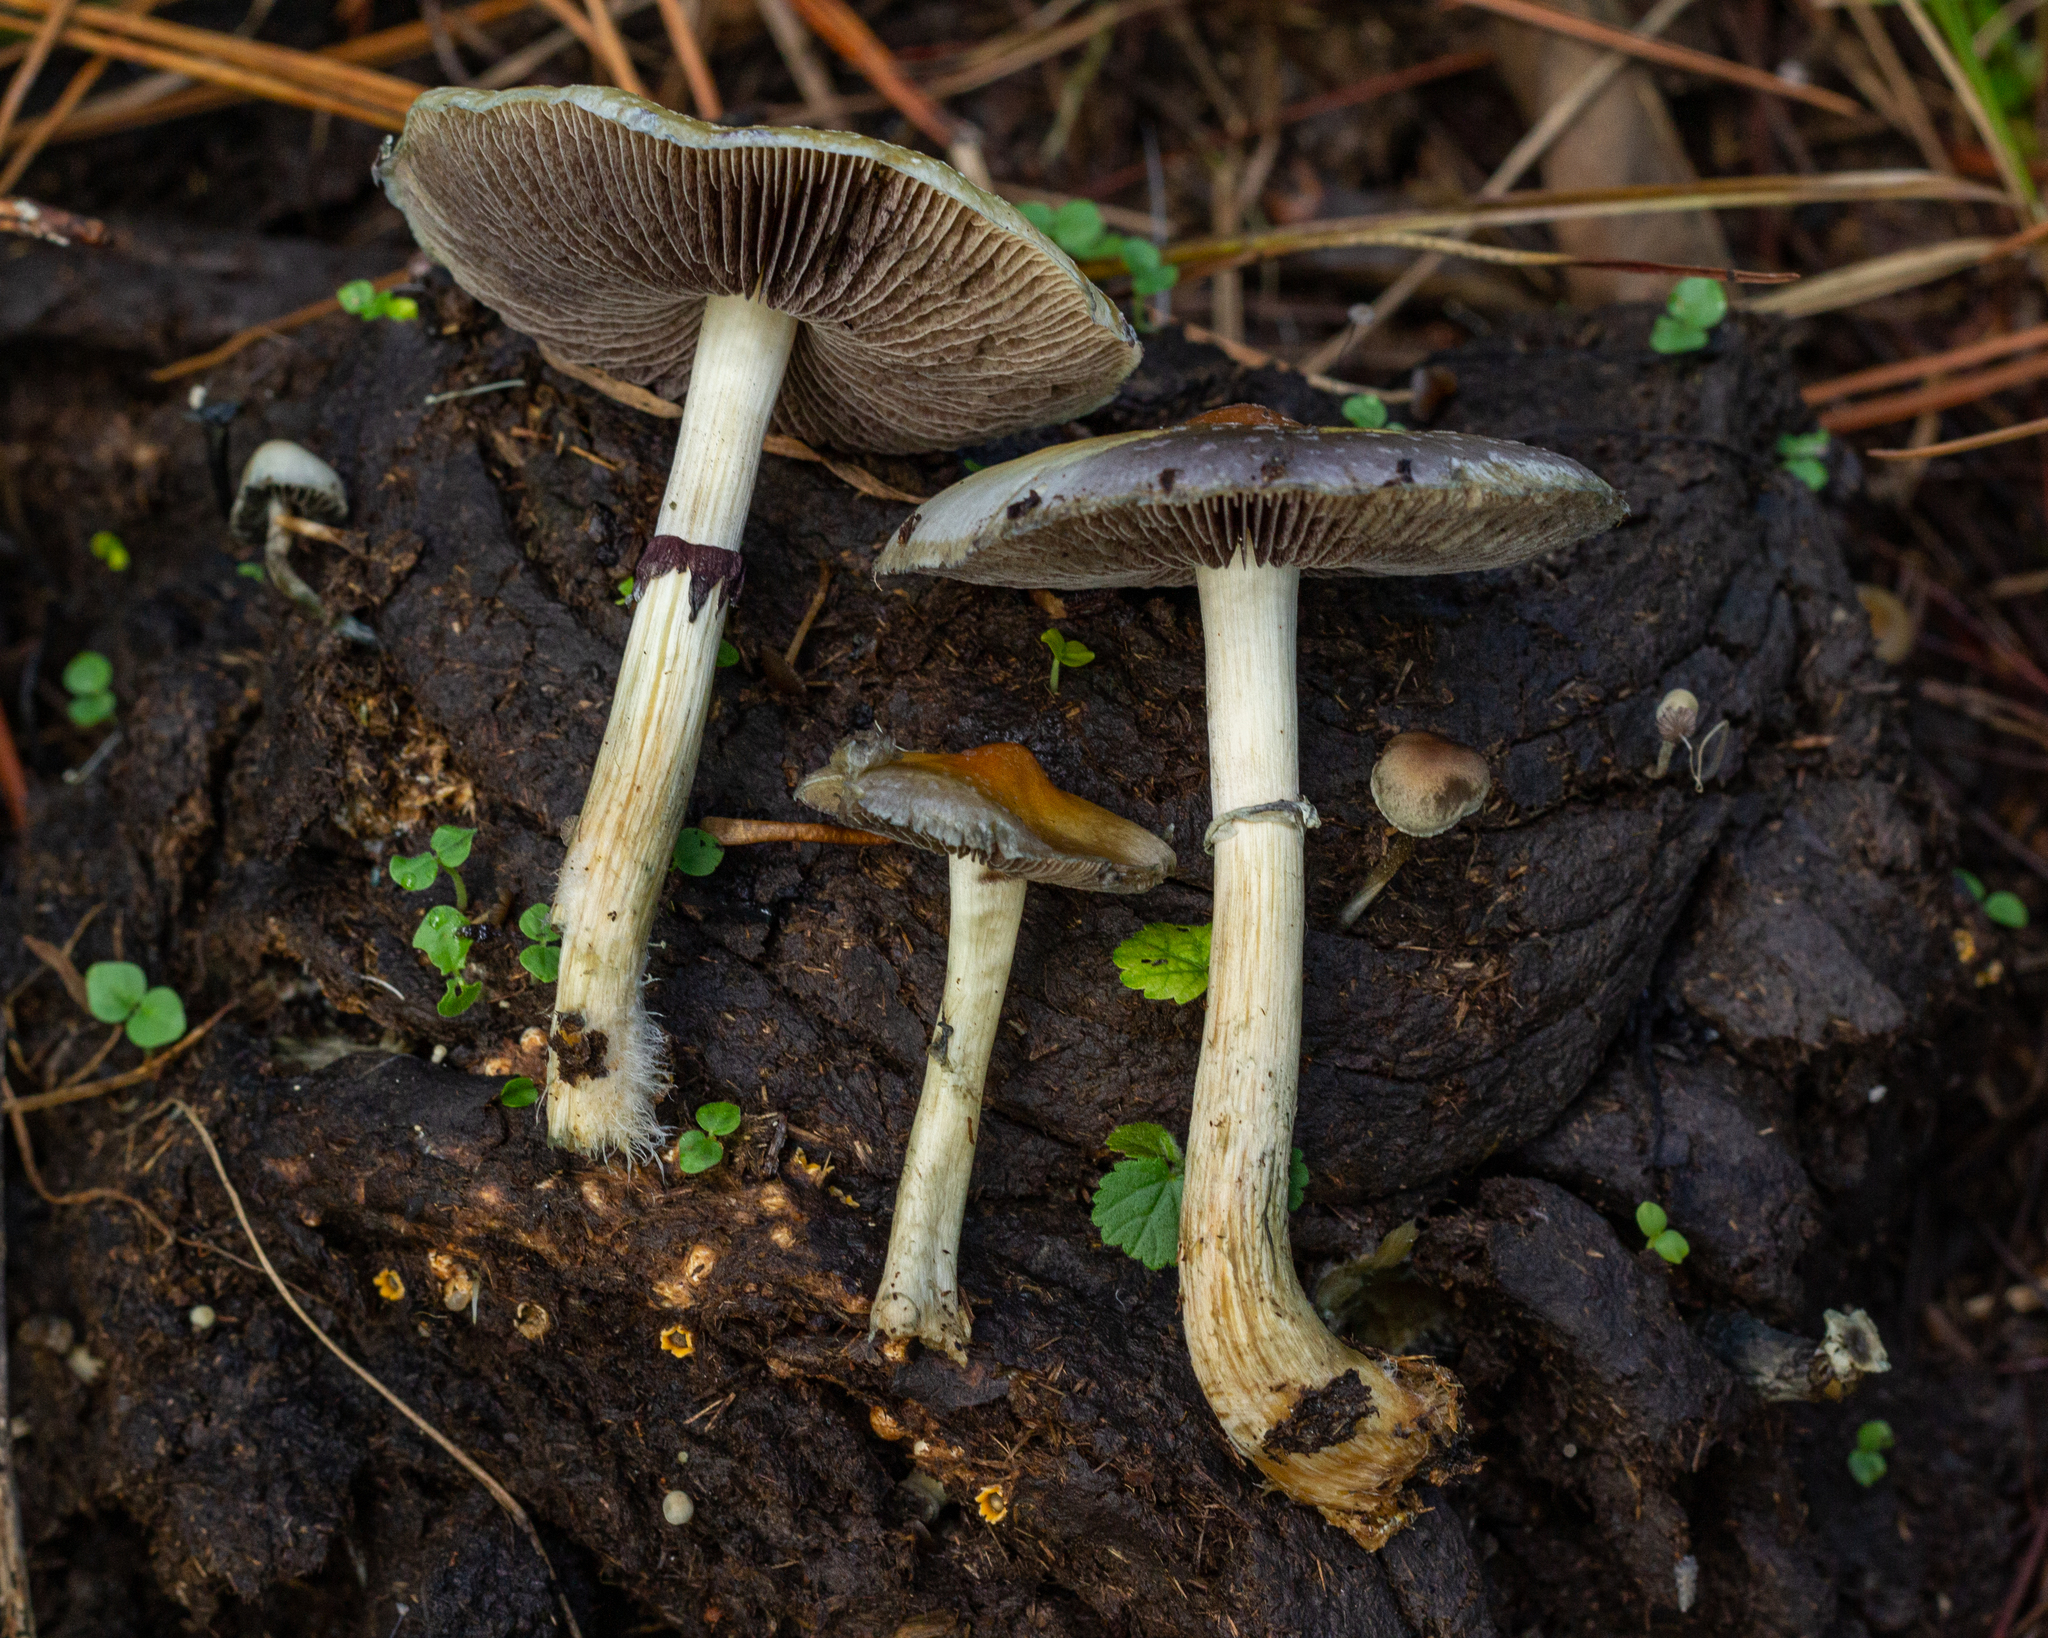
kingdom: Fungi
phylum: Basidiomycota
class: Agaricomycetes
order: Agaricales
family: Hymenogastraceae
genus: Psilocybe
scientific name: Psilocybe cubensis
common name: Golden brownie
